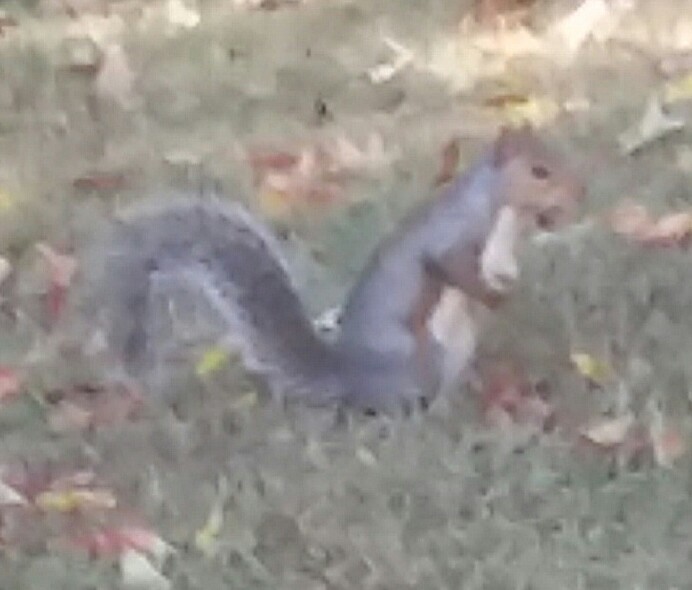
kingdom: Animalia
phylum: Chordata
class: Mammalia
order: Rodentia
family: Sciuridae
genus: Sciurus
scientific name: Sciurus carolinensis
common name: Eastern gray squirrel
